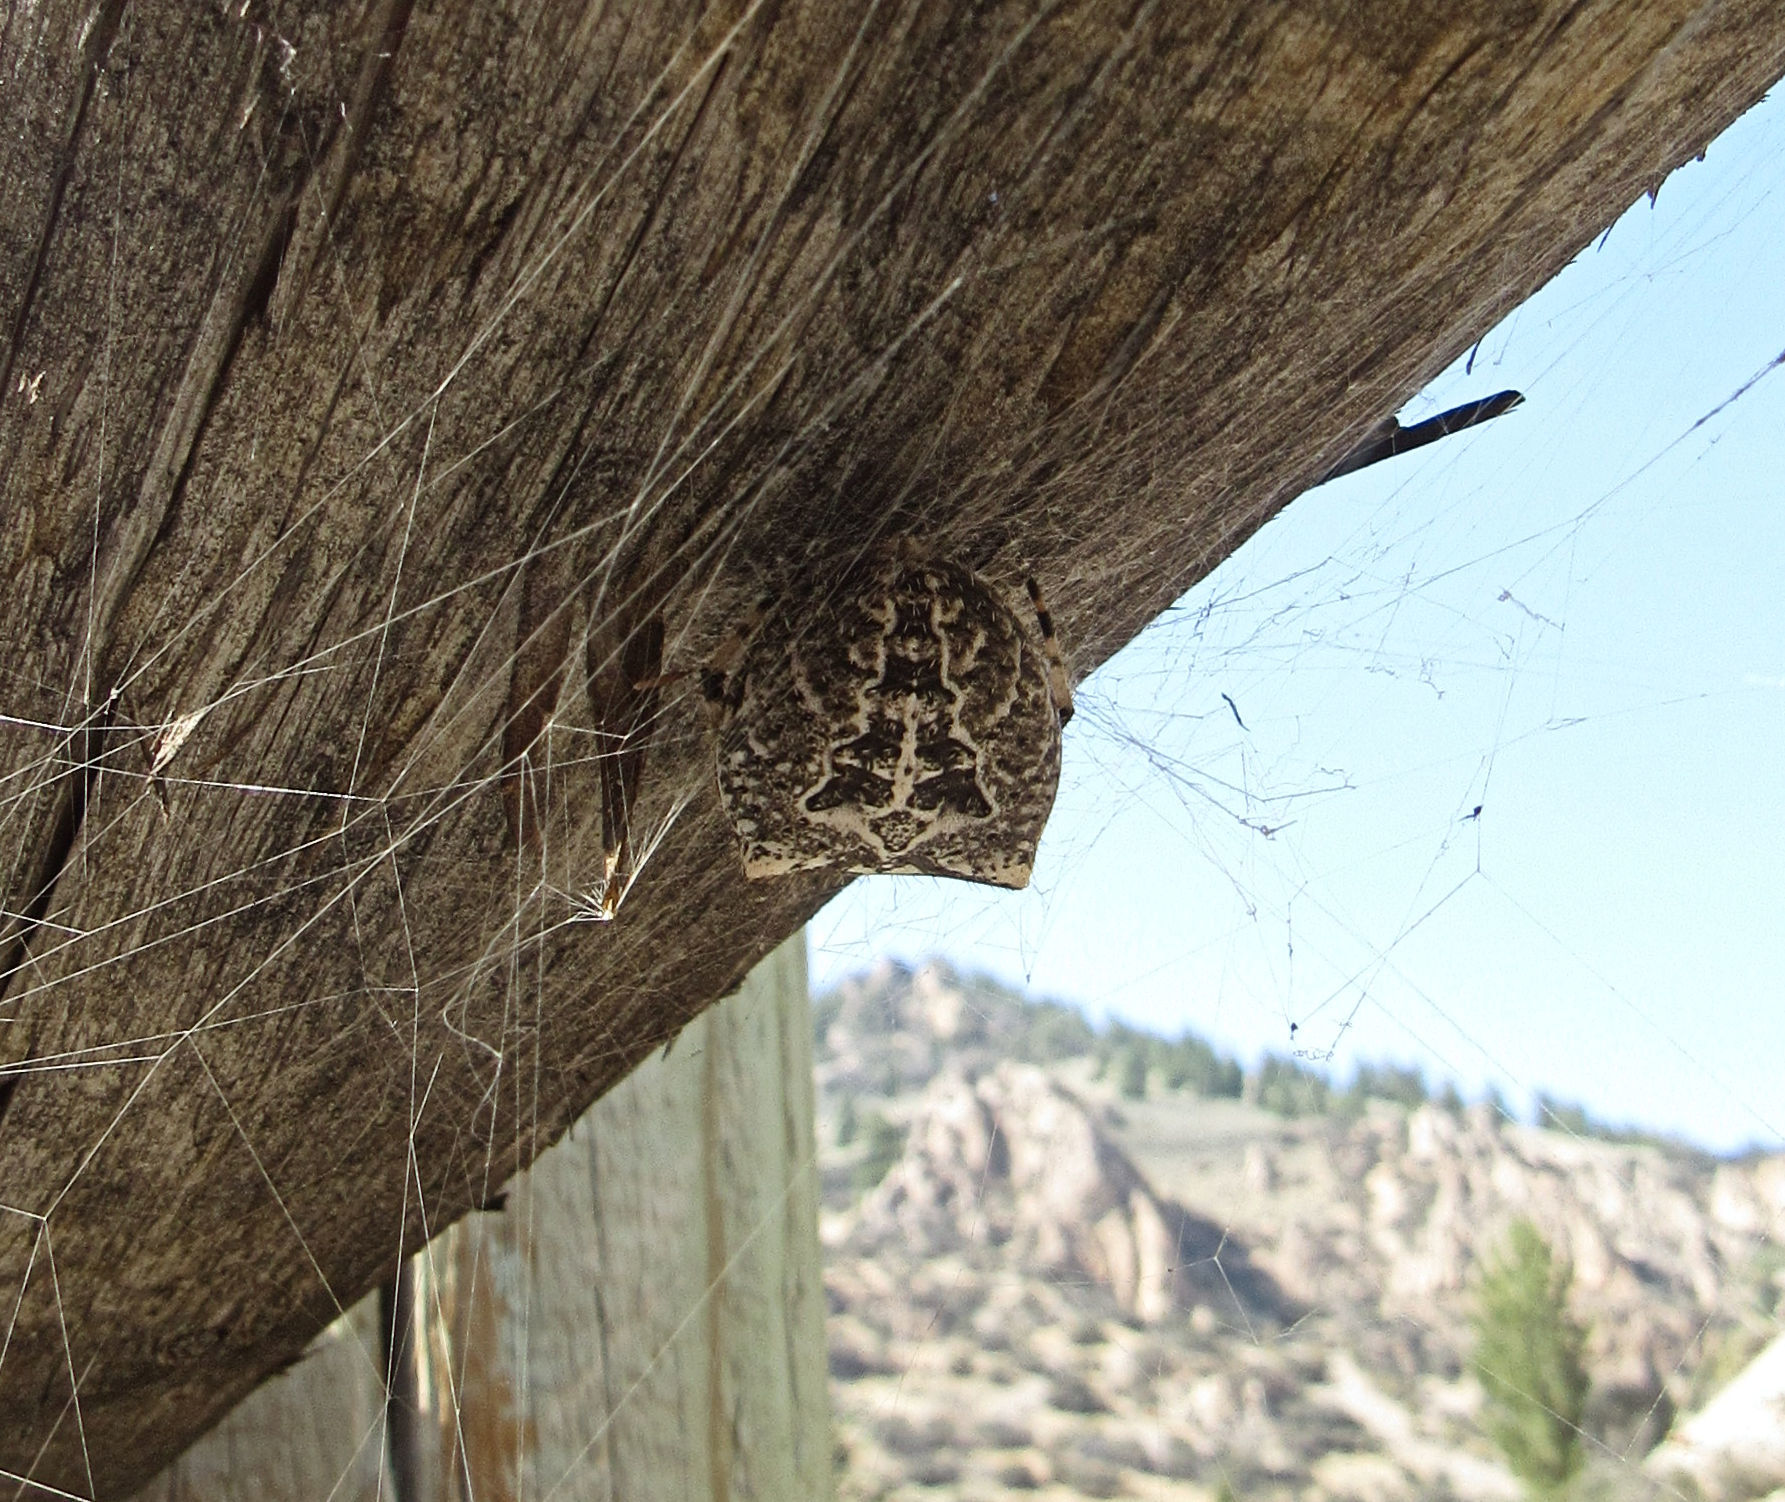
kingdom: Animalia
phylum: Arthropoda
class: Arachnida
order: Araneae
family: Araneidae
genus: Araneus
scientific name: Araneus gemmoides
